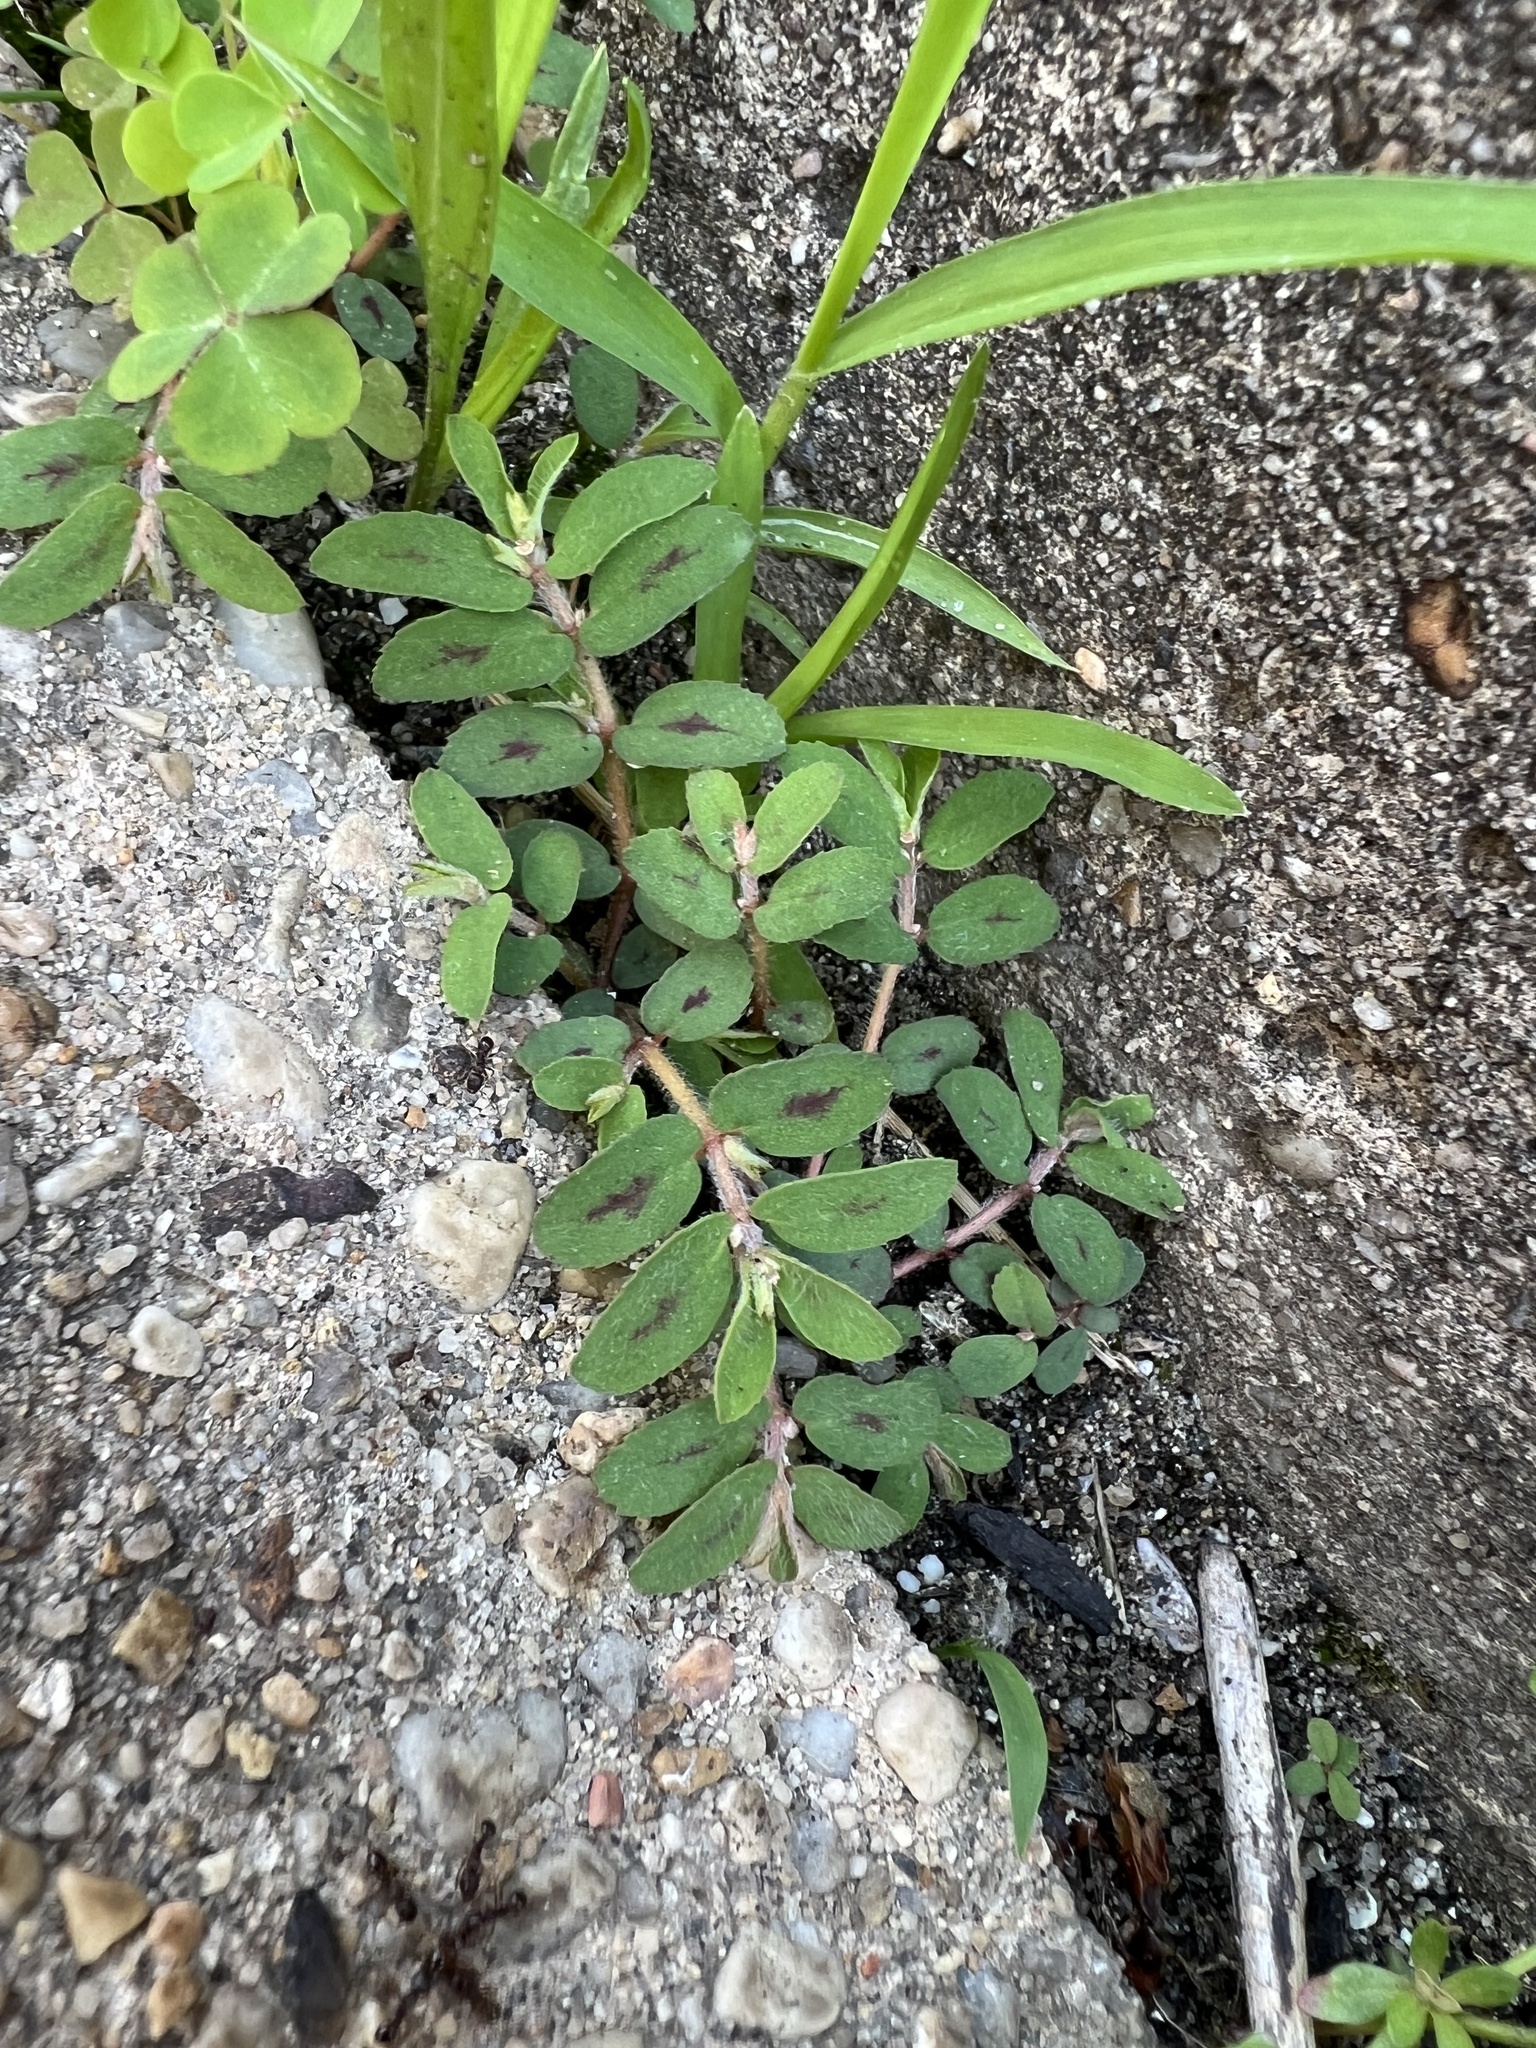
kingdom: Plantae
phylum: Tracheophyta
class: Magnoliopsida
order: Malpighiales
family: Euphorbiaceae
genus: Euphorbia
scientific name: Euphorbia maculata
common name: Spotted spurge
